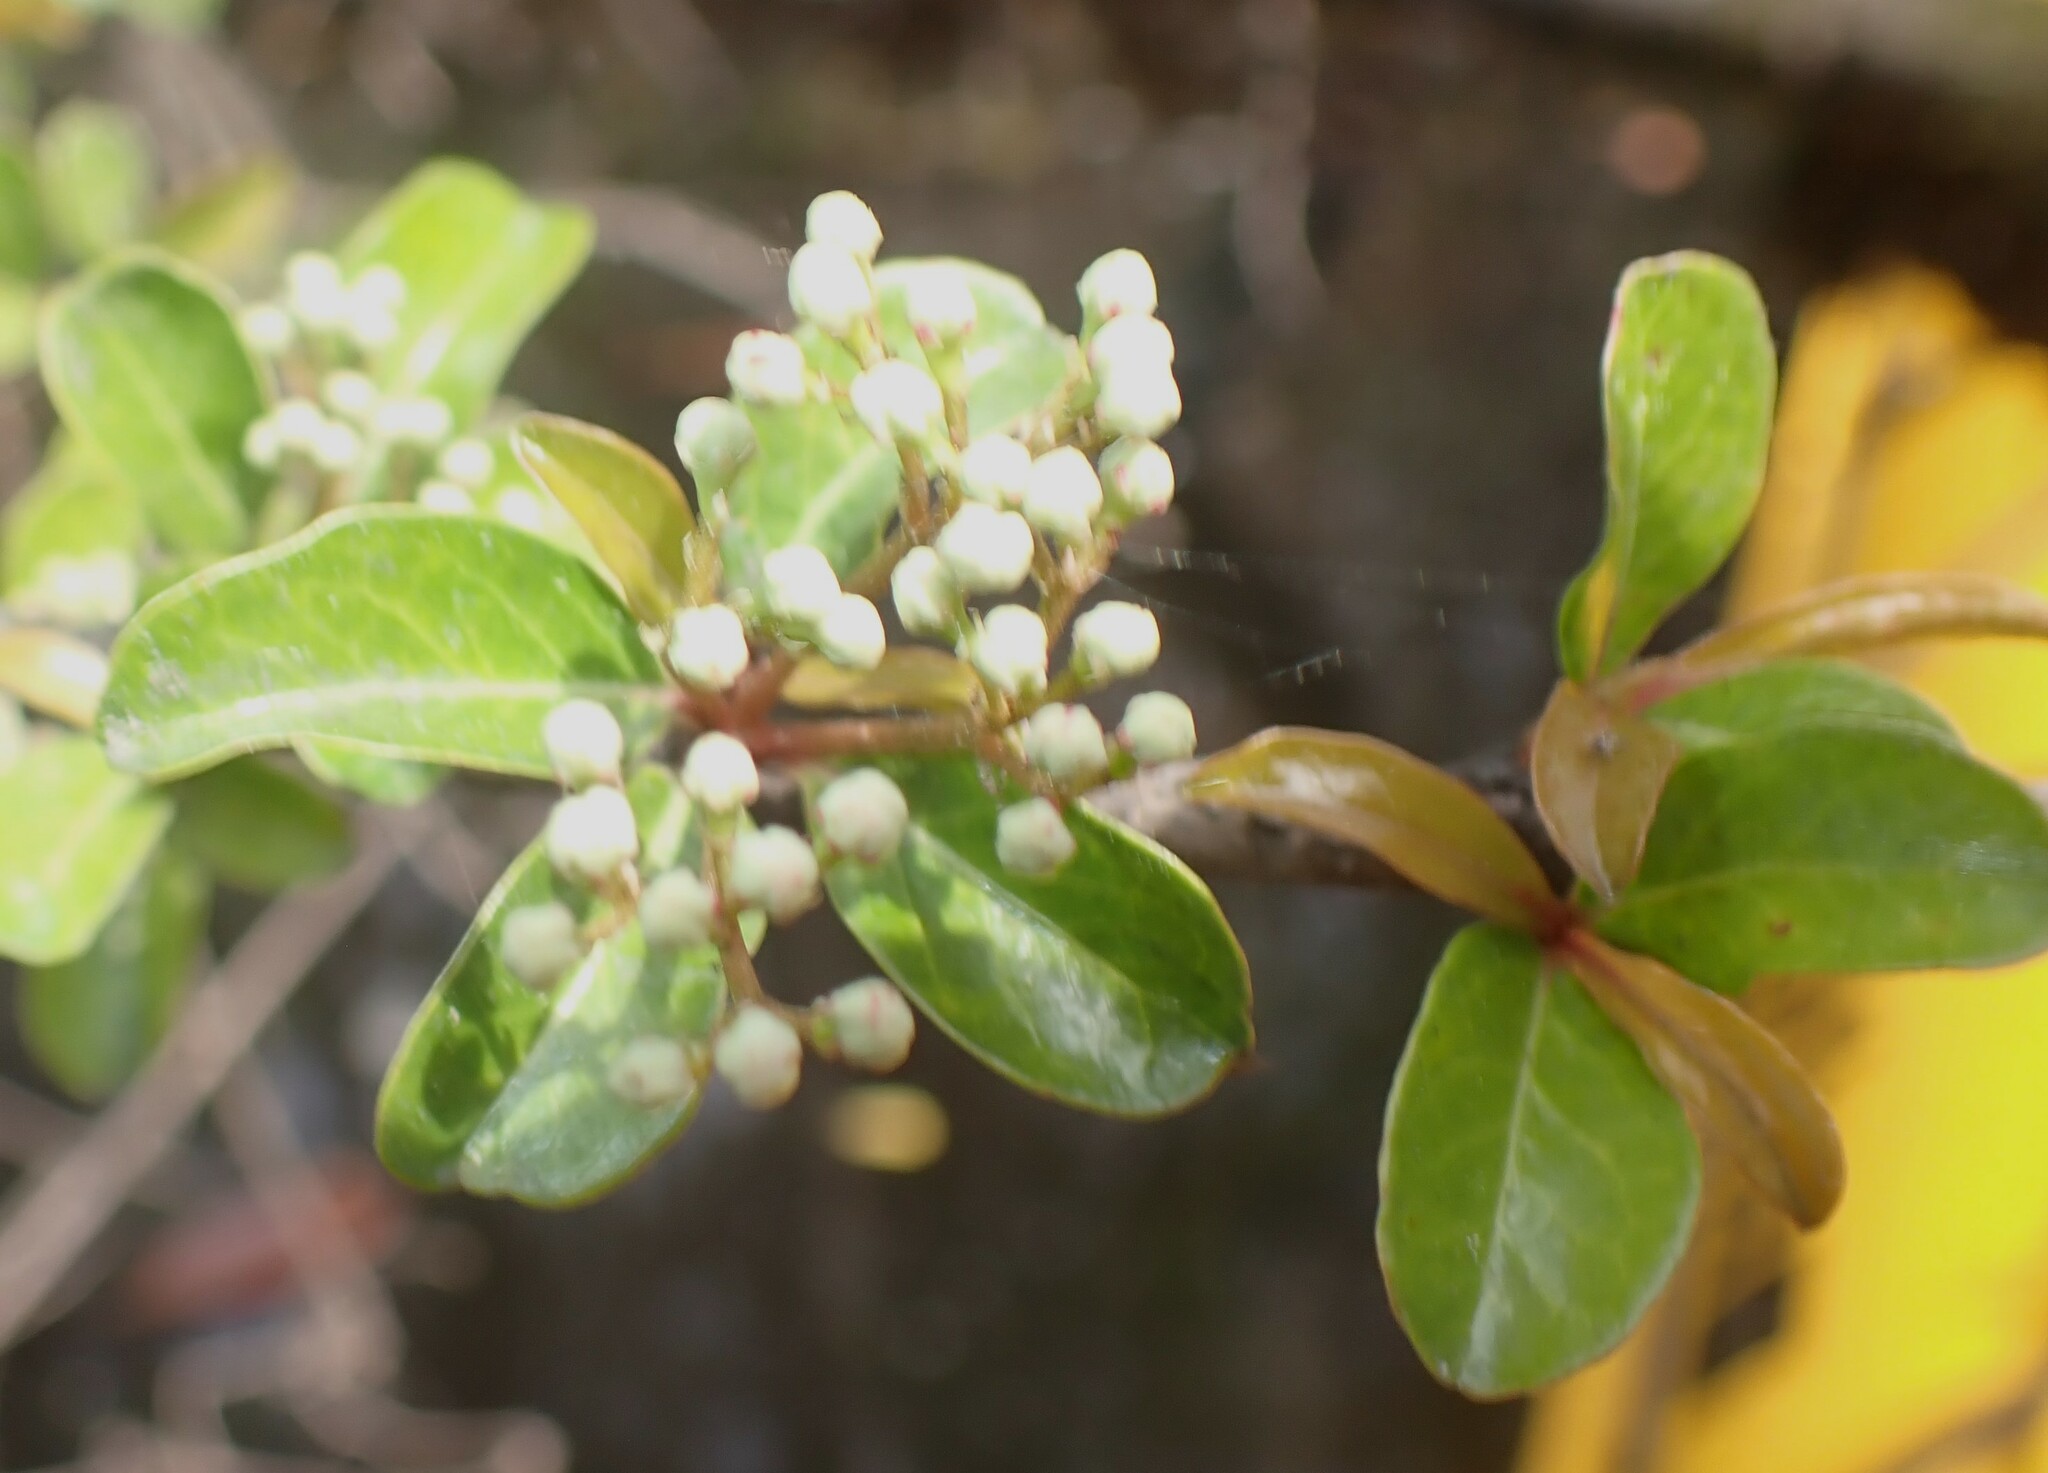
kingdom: Plantae
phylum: Tracheophyta
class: Magnoliopsida
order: Dipsacales
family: Viburnaceae
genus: Viburnum
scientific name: Viburnum obovatum
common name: Walter's viburnum
